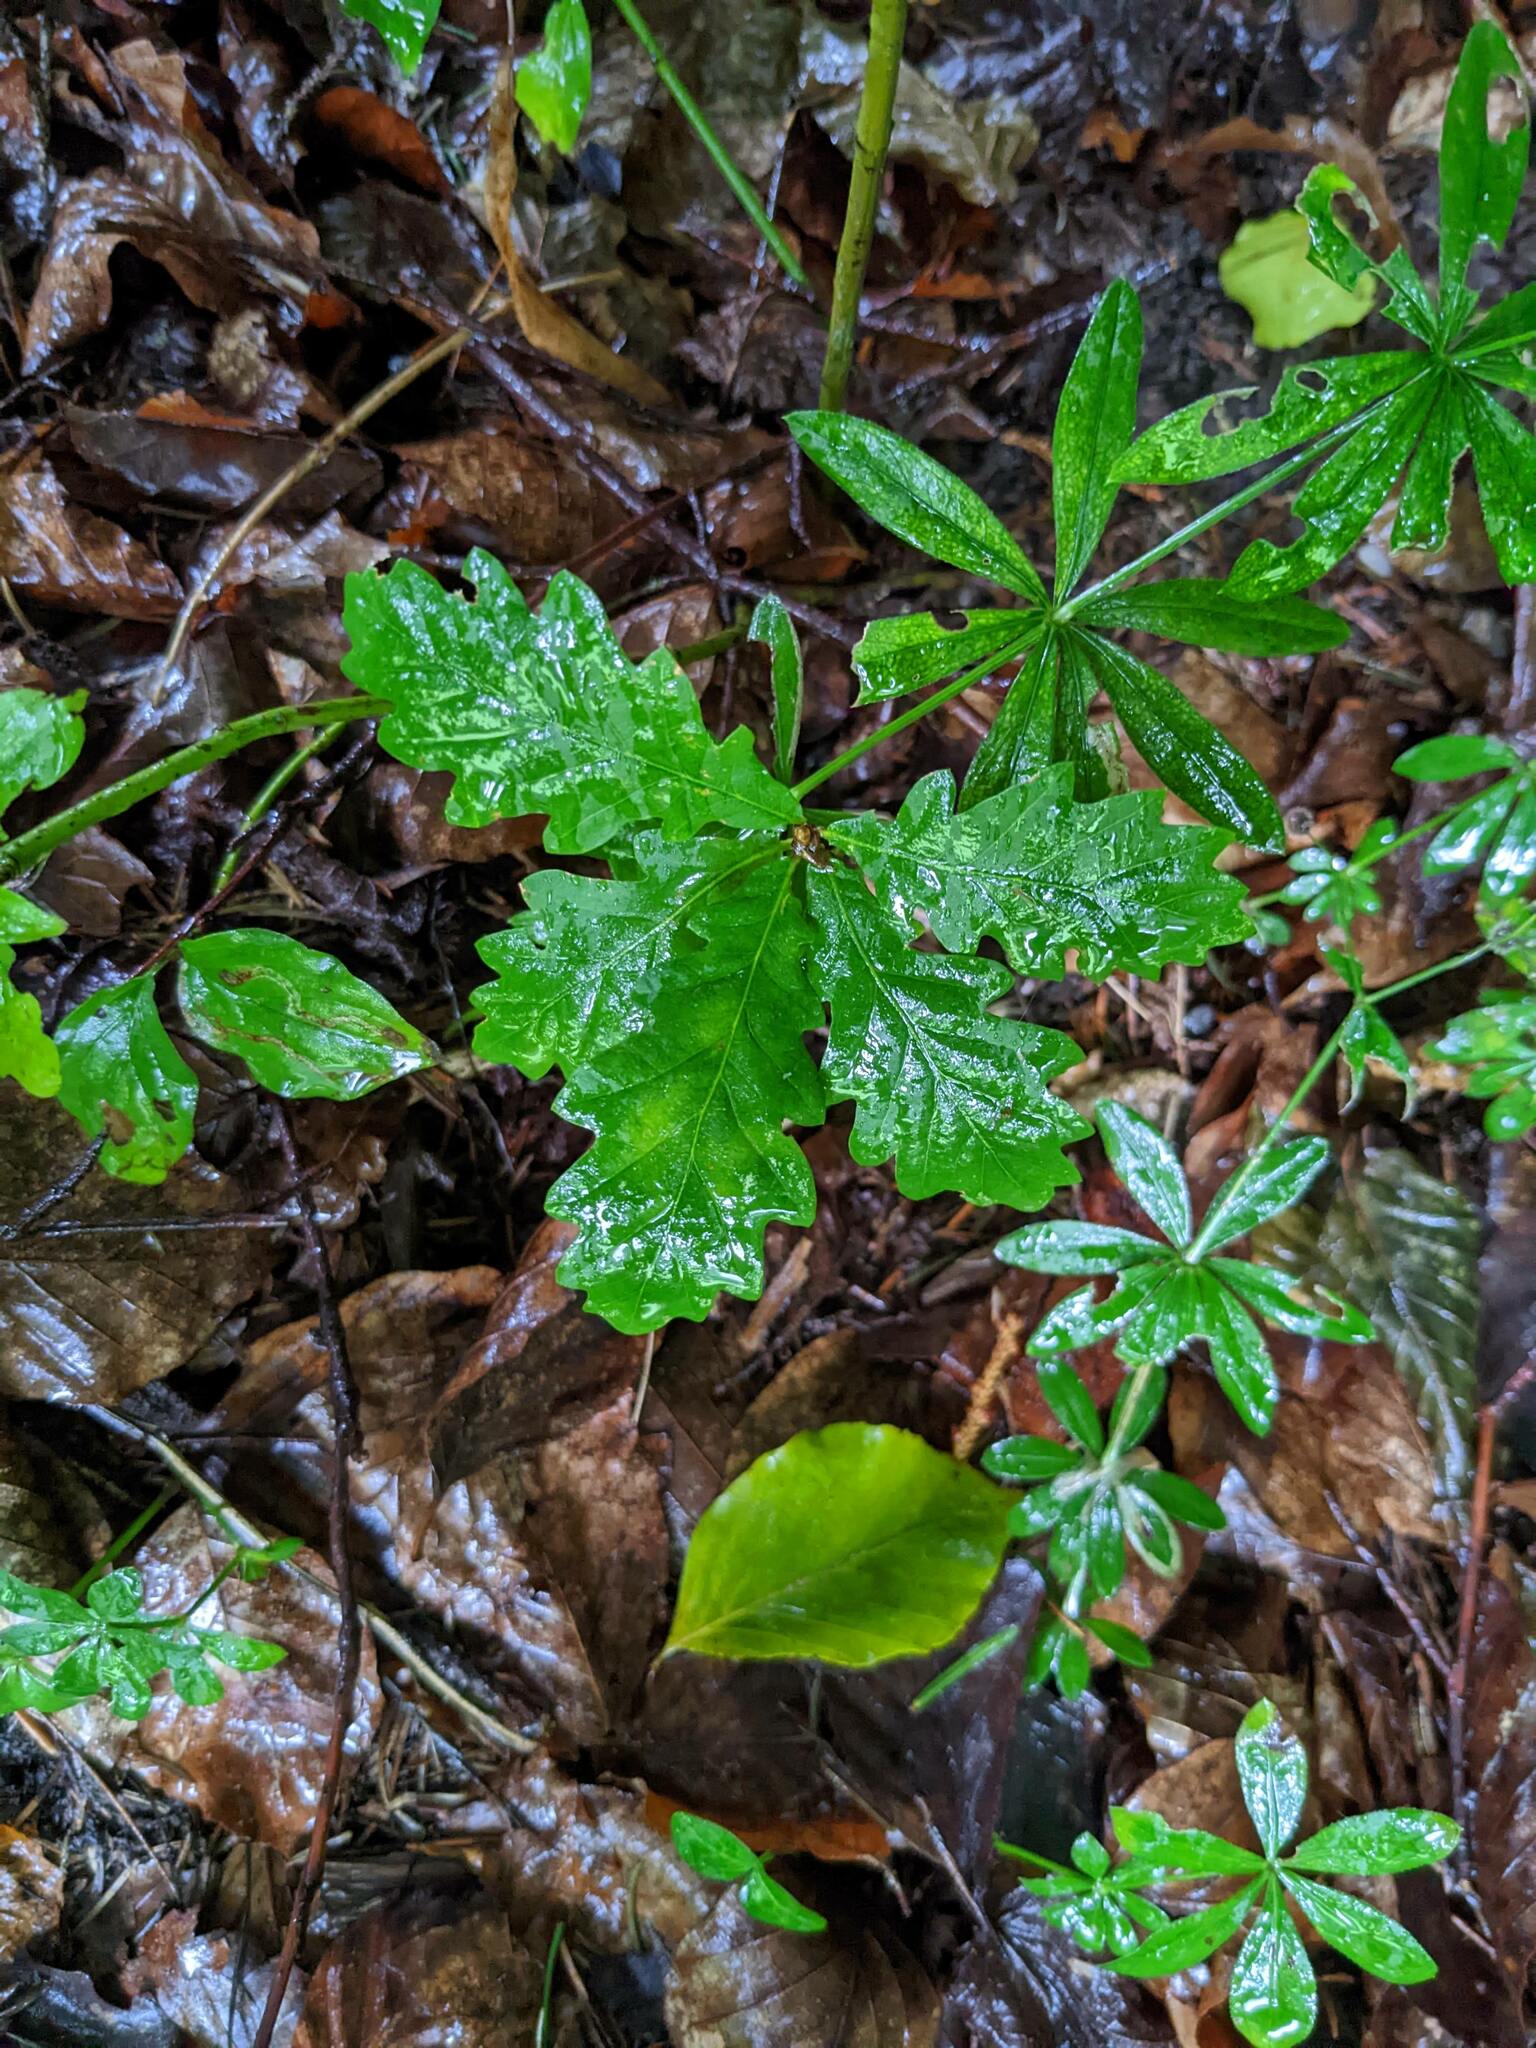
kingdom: Plantae
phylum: Tracheophyta
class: Magnoliopsida
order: Fagales
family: Fagaceae
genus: Quercus
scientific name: Quercus robur
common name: Pedunculate oak
